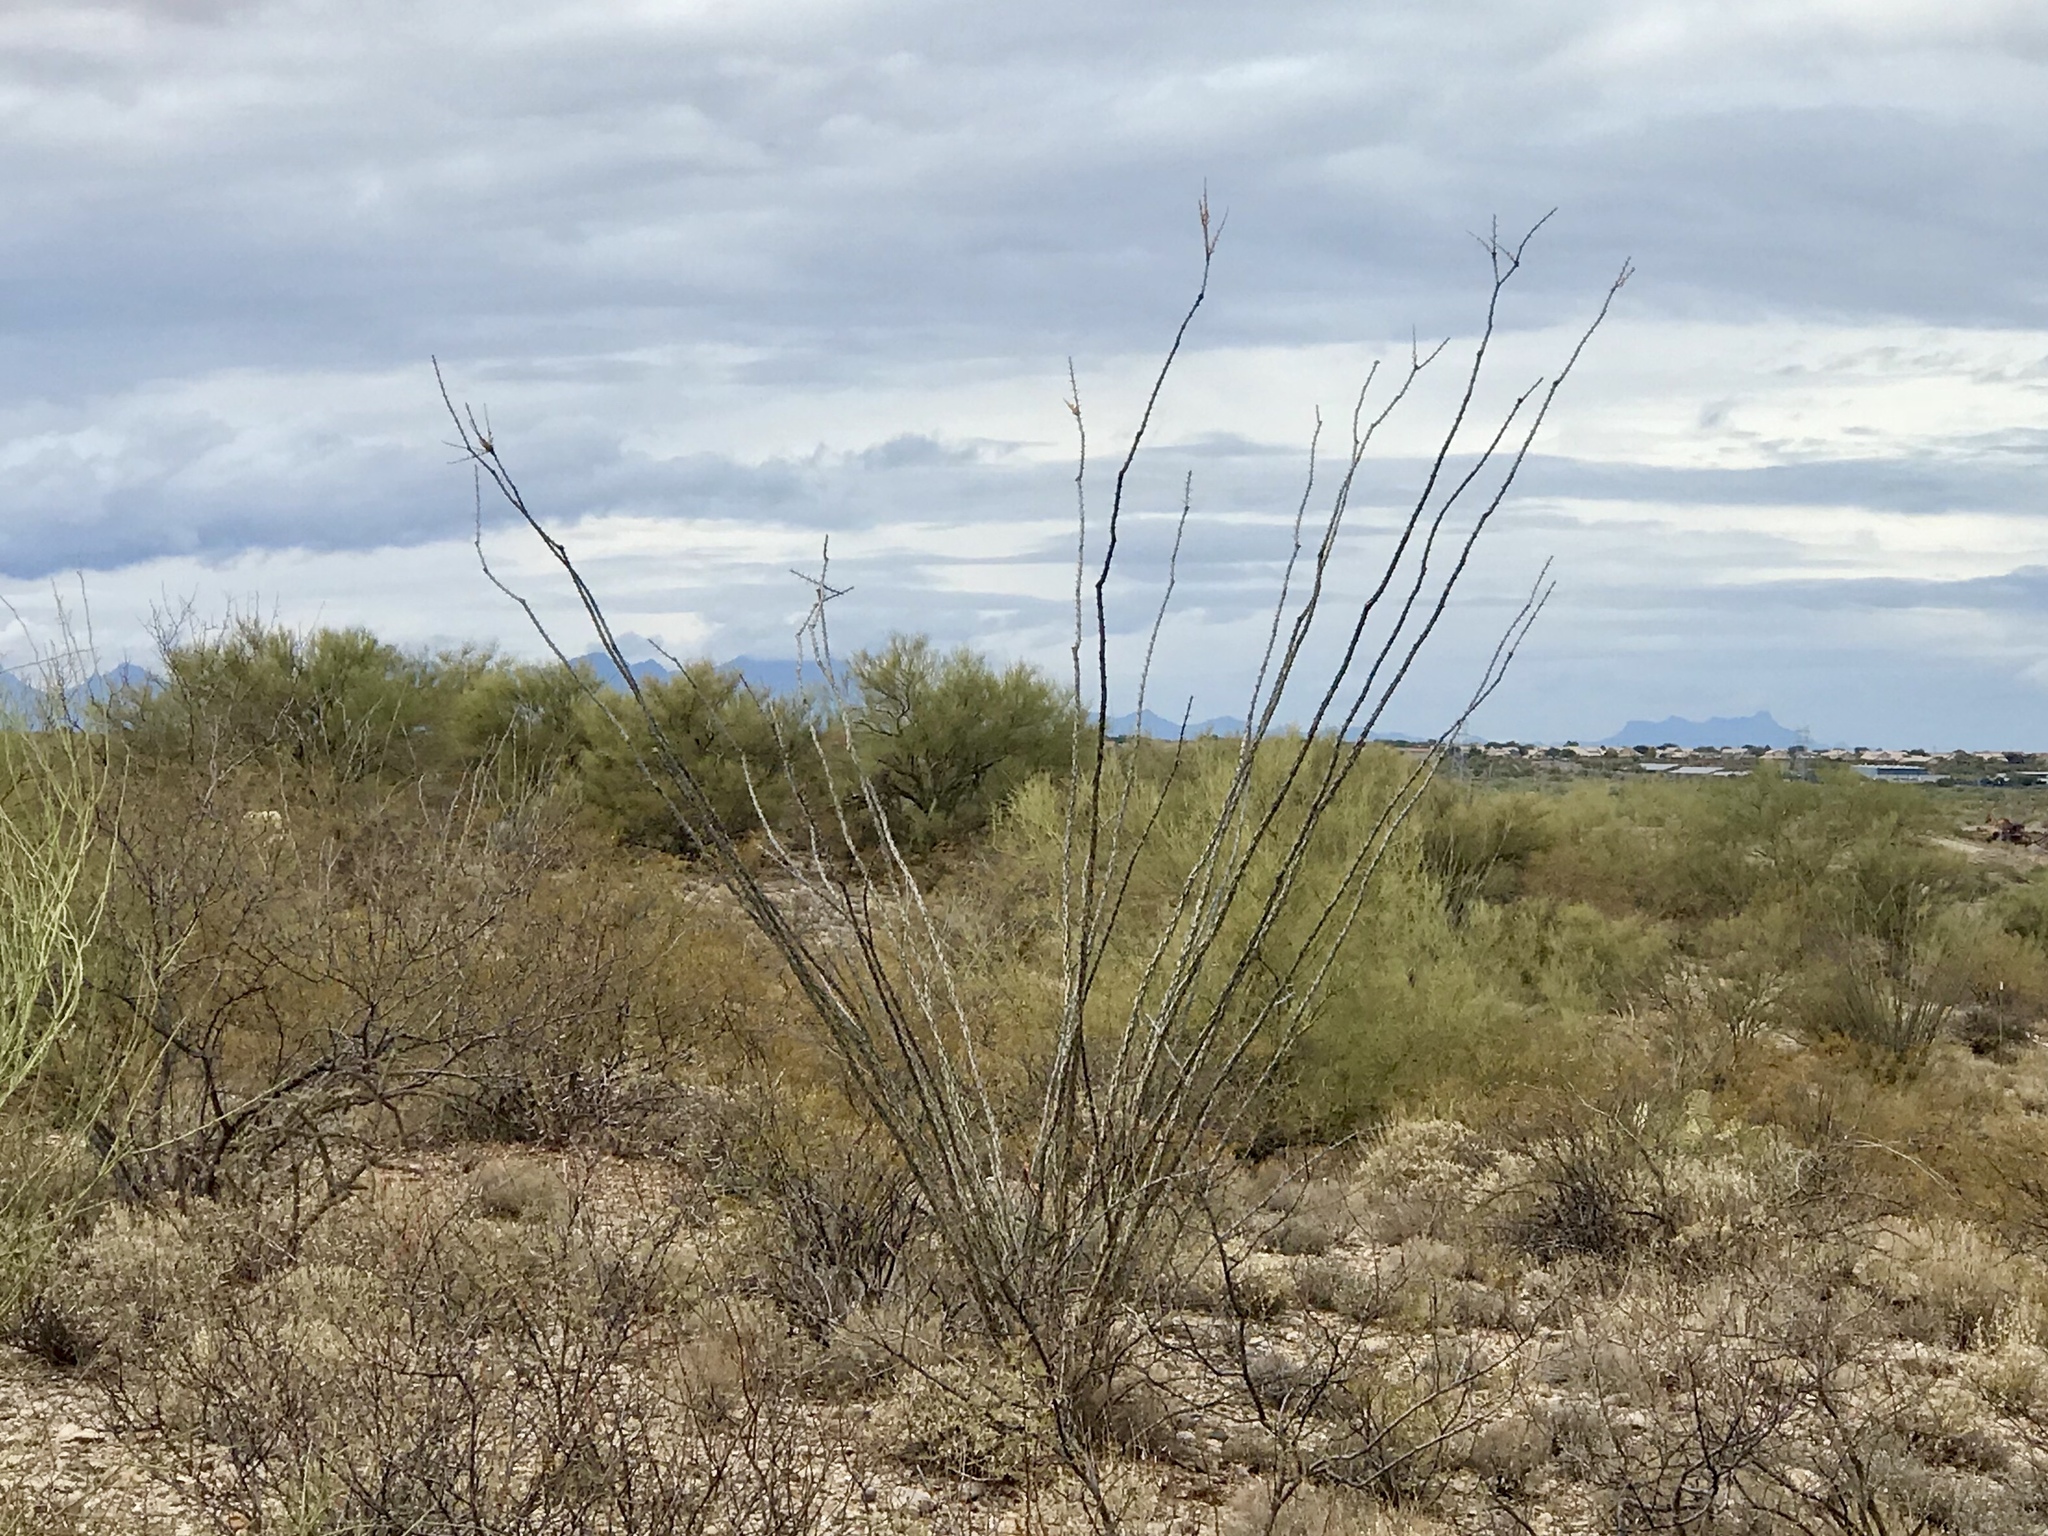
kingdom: Plantae
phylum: Tracheophyta
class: Magnoliopsida
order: Ericales
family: Fouquieriaceae
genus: Fouquieria
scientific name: Fouquieria splendens
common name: Vine-cactus
